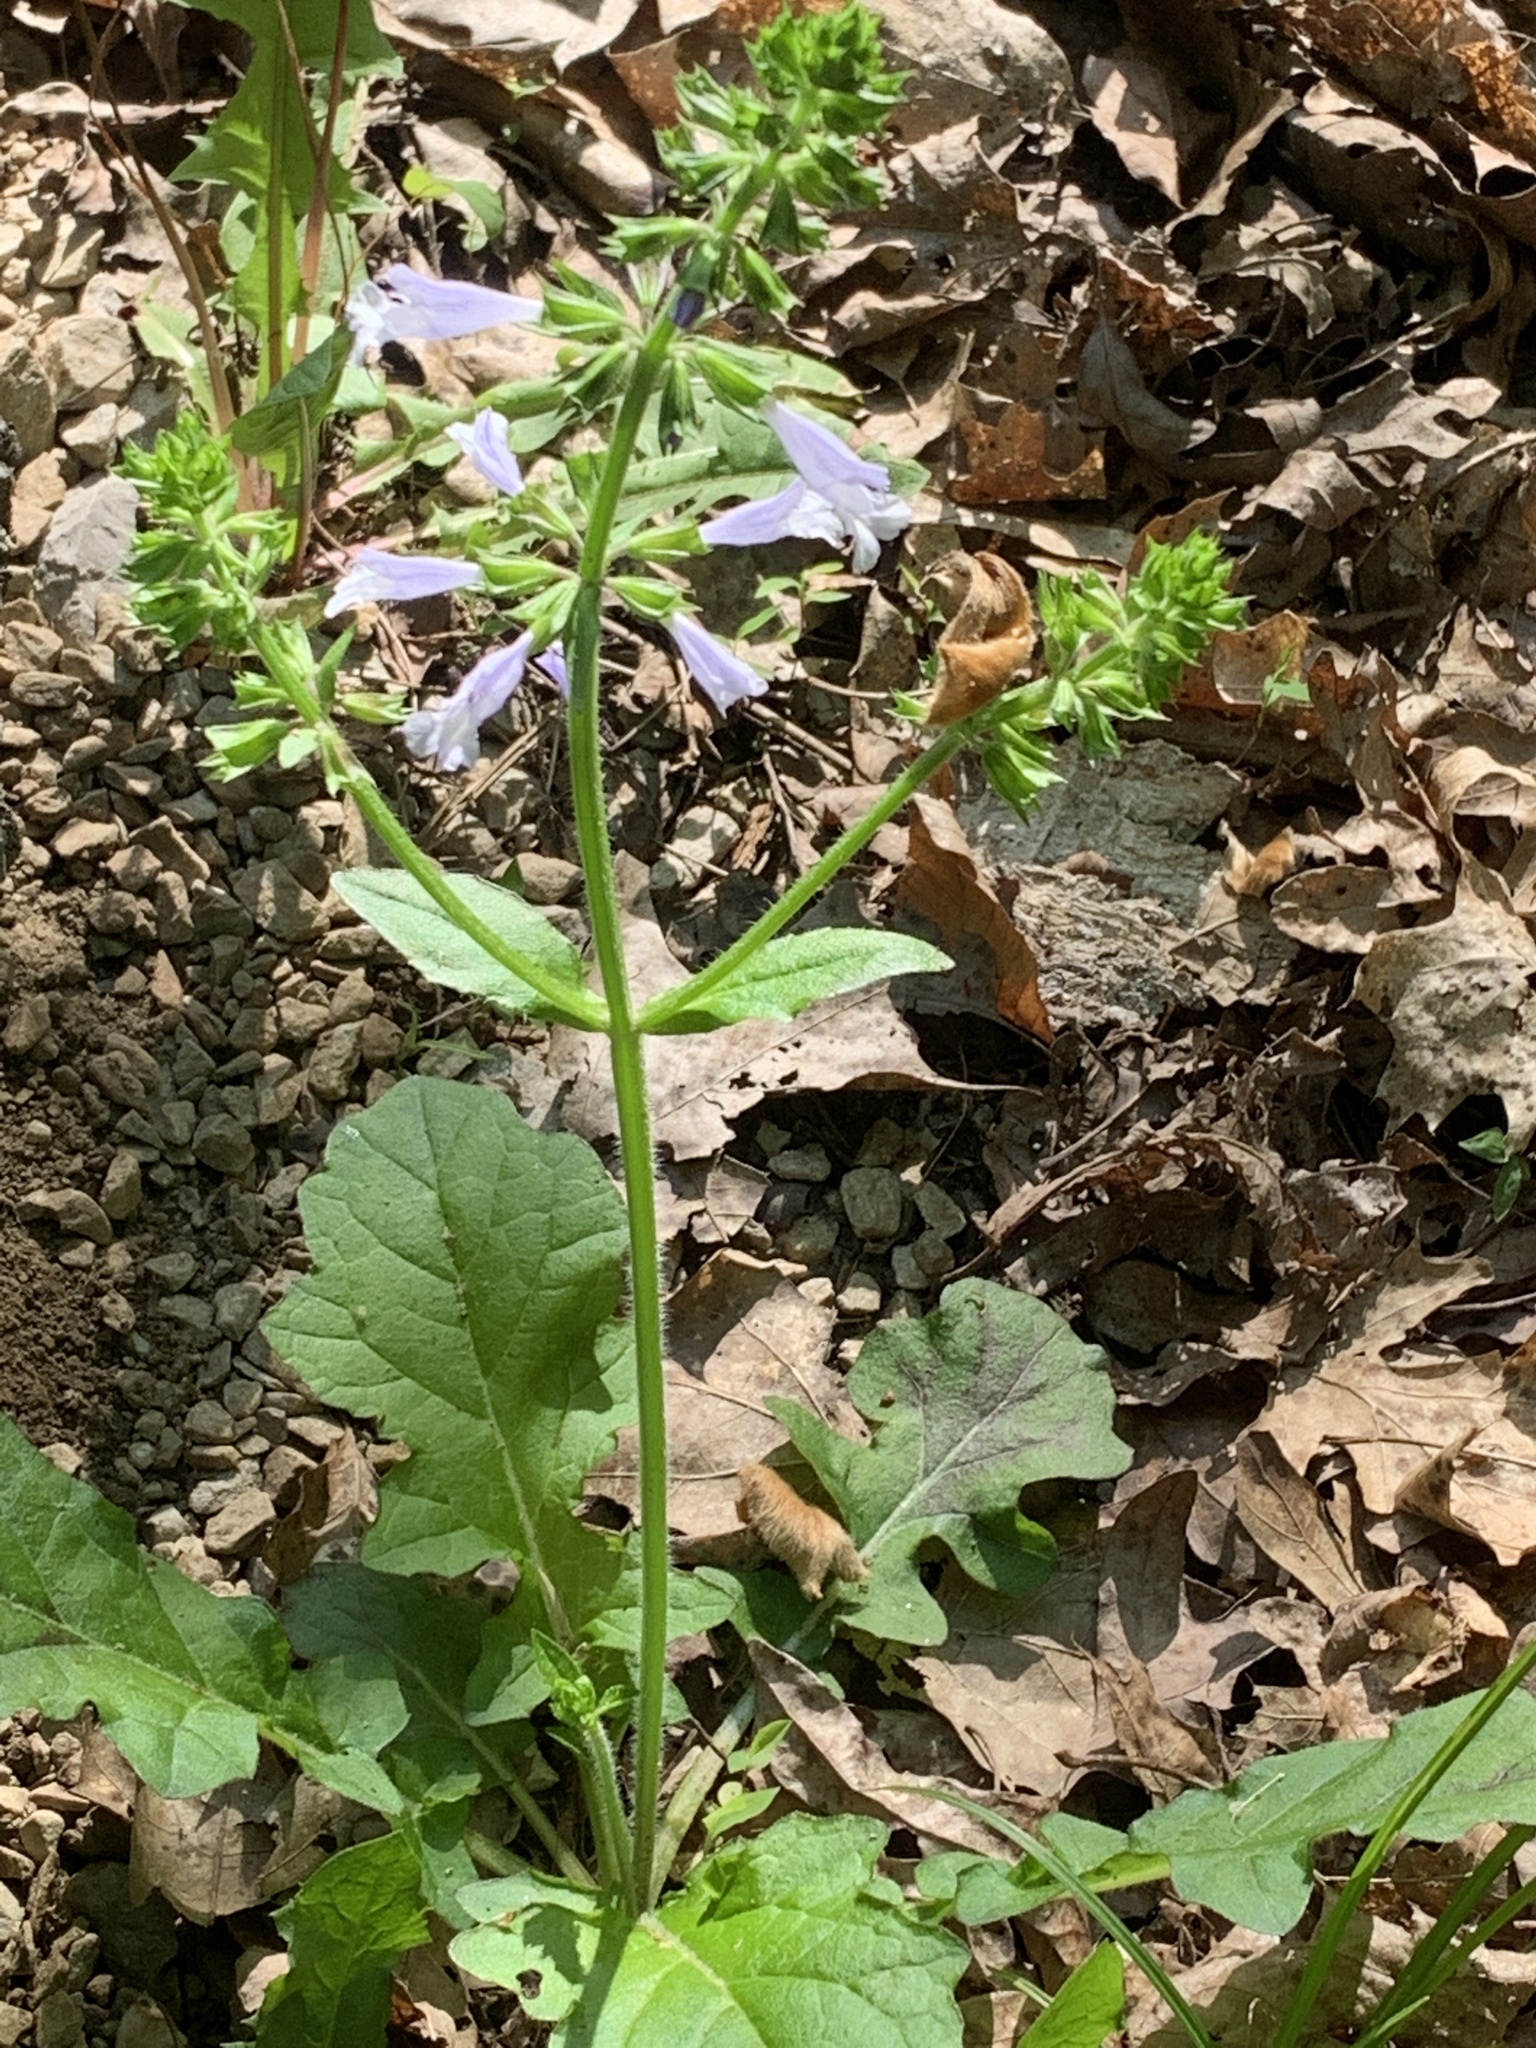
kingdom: Plantae
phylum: Tracheophyta
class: Magnoliopsida
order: Lamiales
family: Lamiaceae
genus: Salvia
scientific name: Salvia lyrata
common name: Cancerweed
